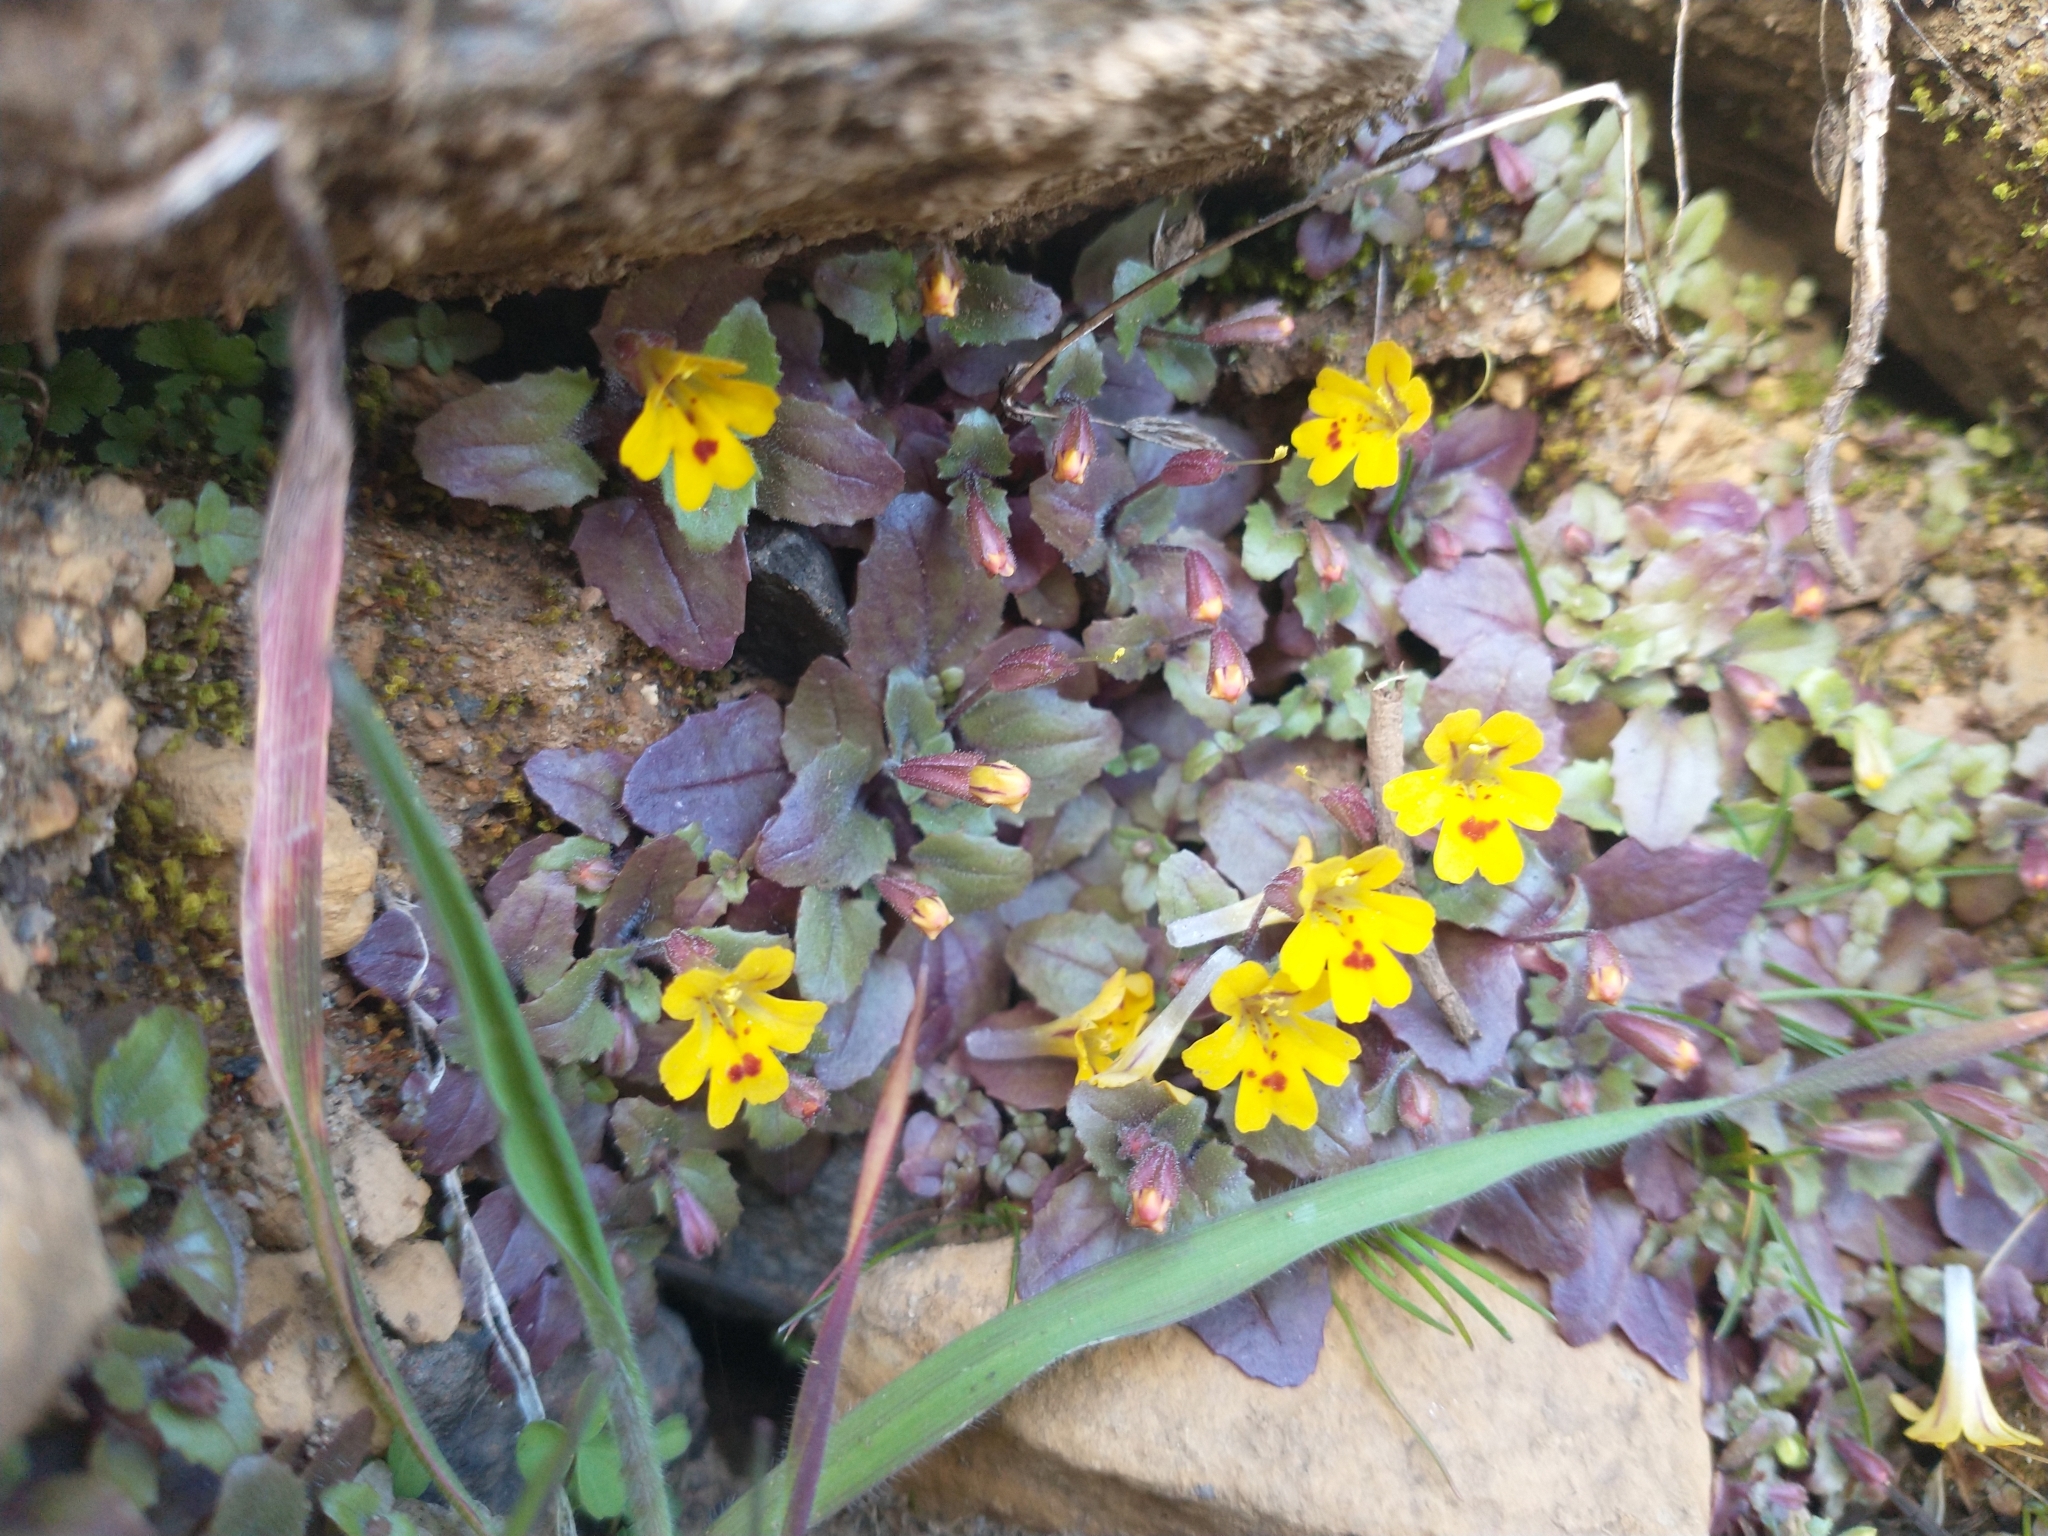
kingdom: Plantae
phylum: Tracheophyta
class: Magnoliopsida
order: Lamiales
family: Phrymaceae
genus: Erythranthe
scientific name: Erythranthe alsinoides
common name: Chickweed monkeyflower
